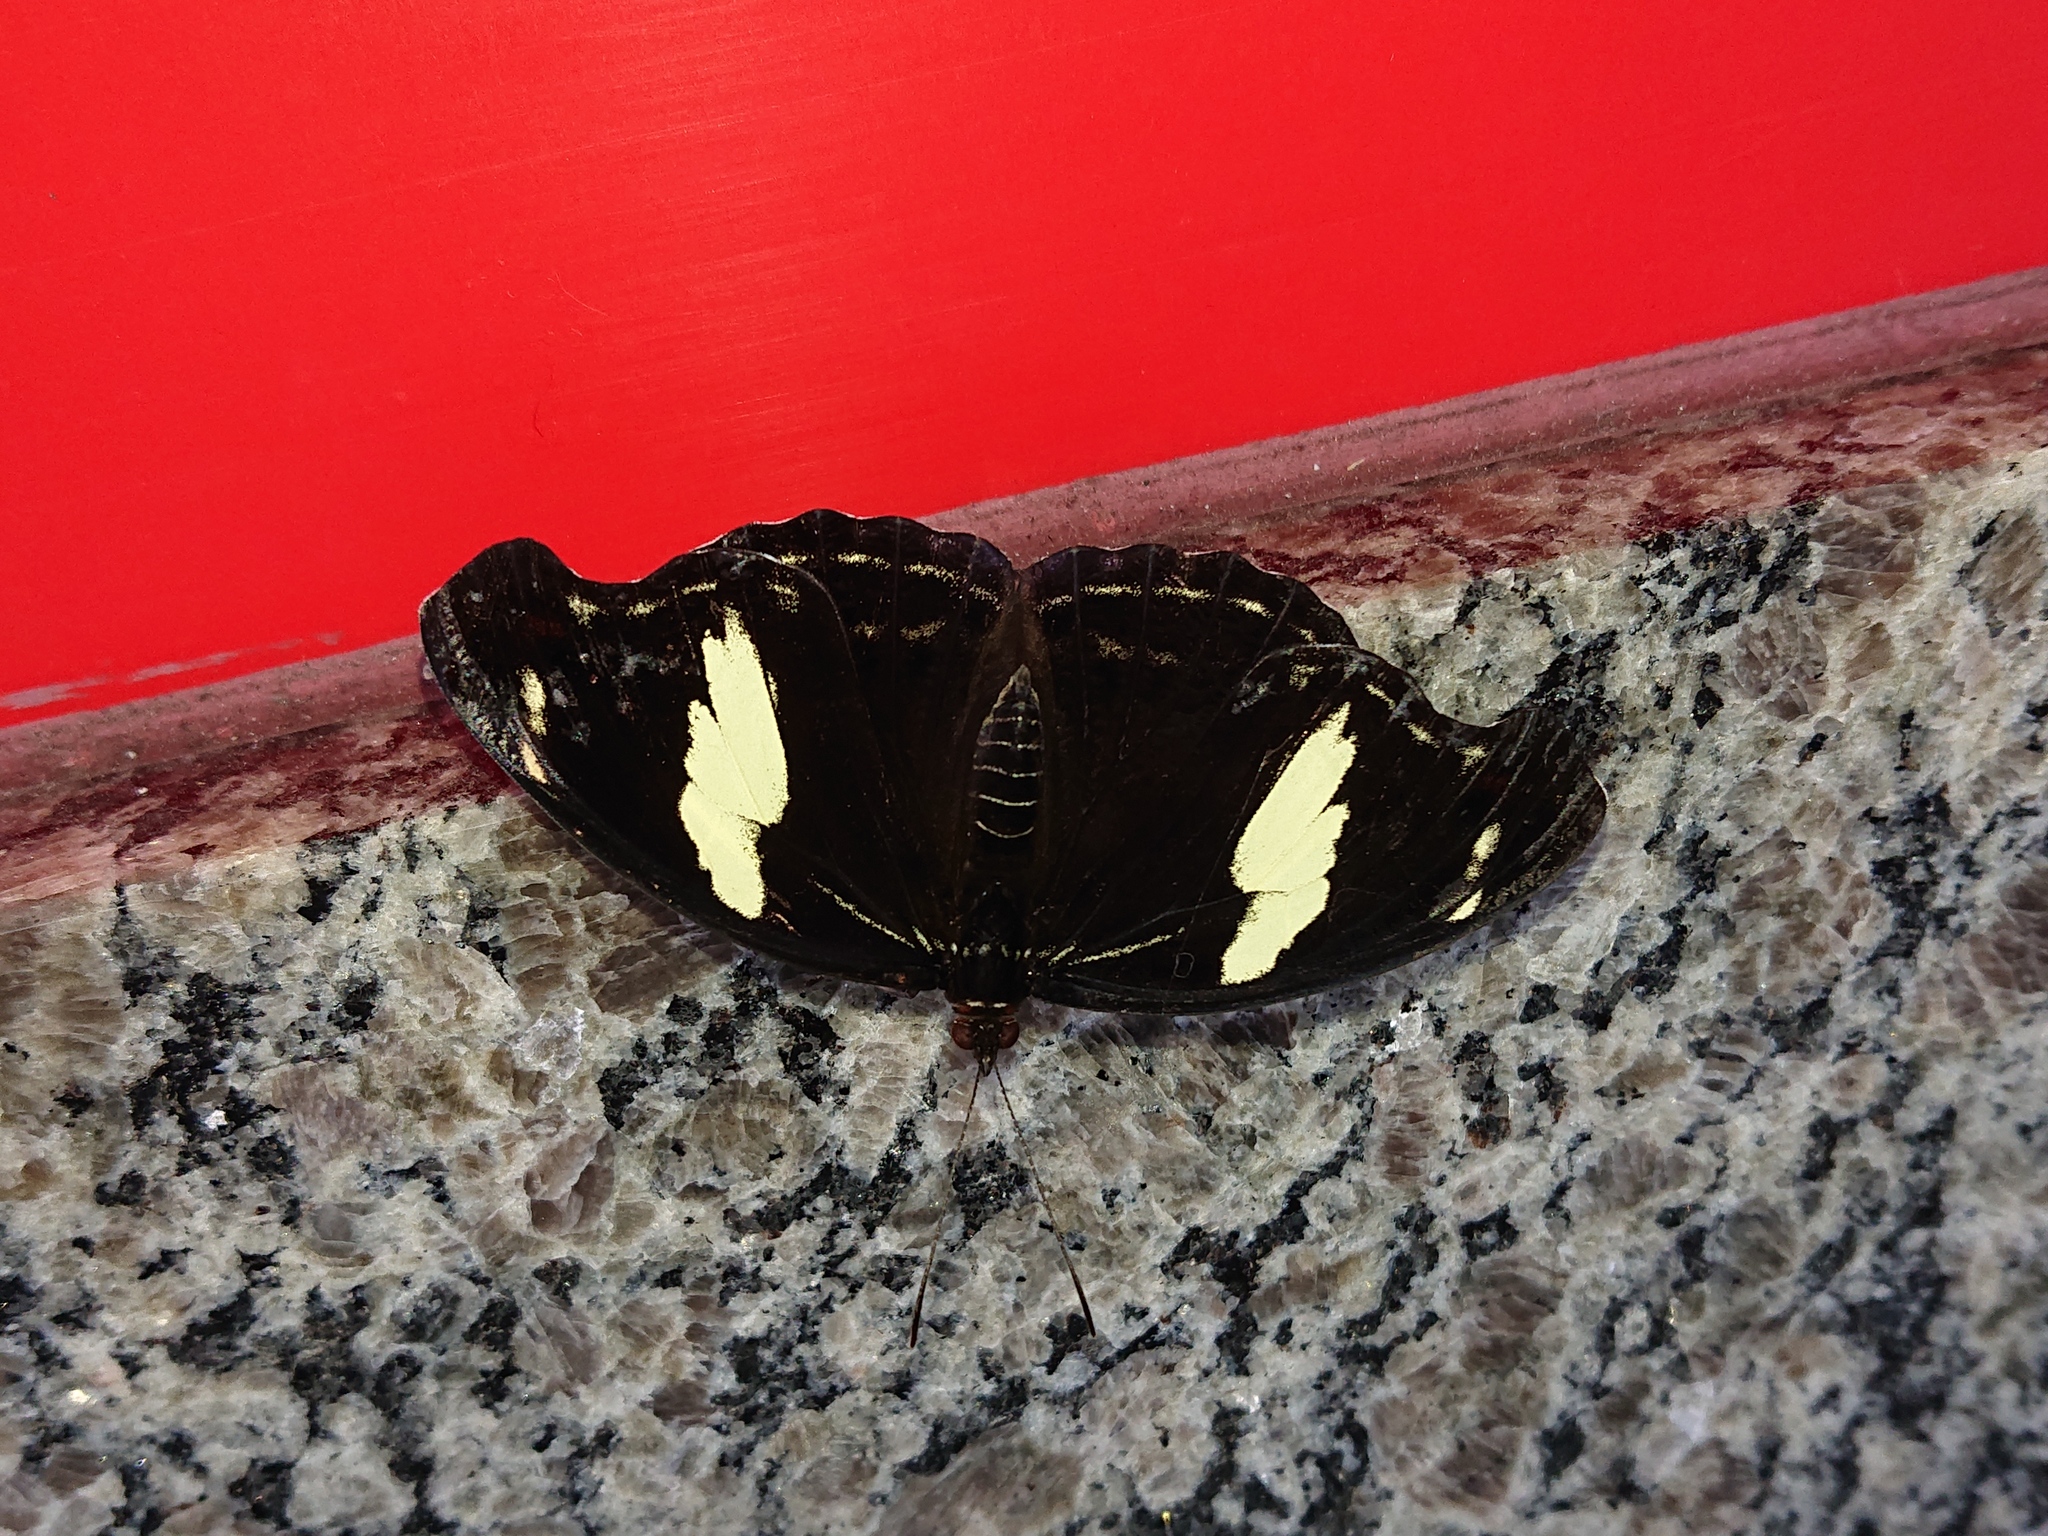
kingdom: Animalia
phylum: Arthropoda
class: Insecta
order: Lepidoptera
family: Nymphalidae
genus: Catonephele
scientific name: Catonephele numilia
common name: Blue-frosted banner
